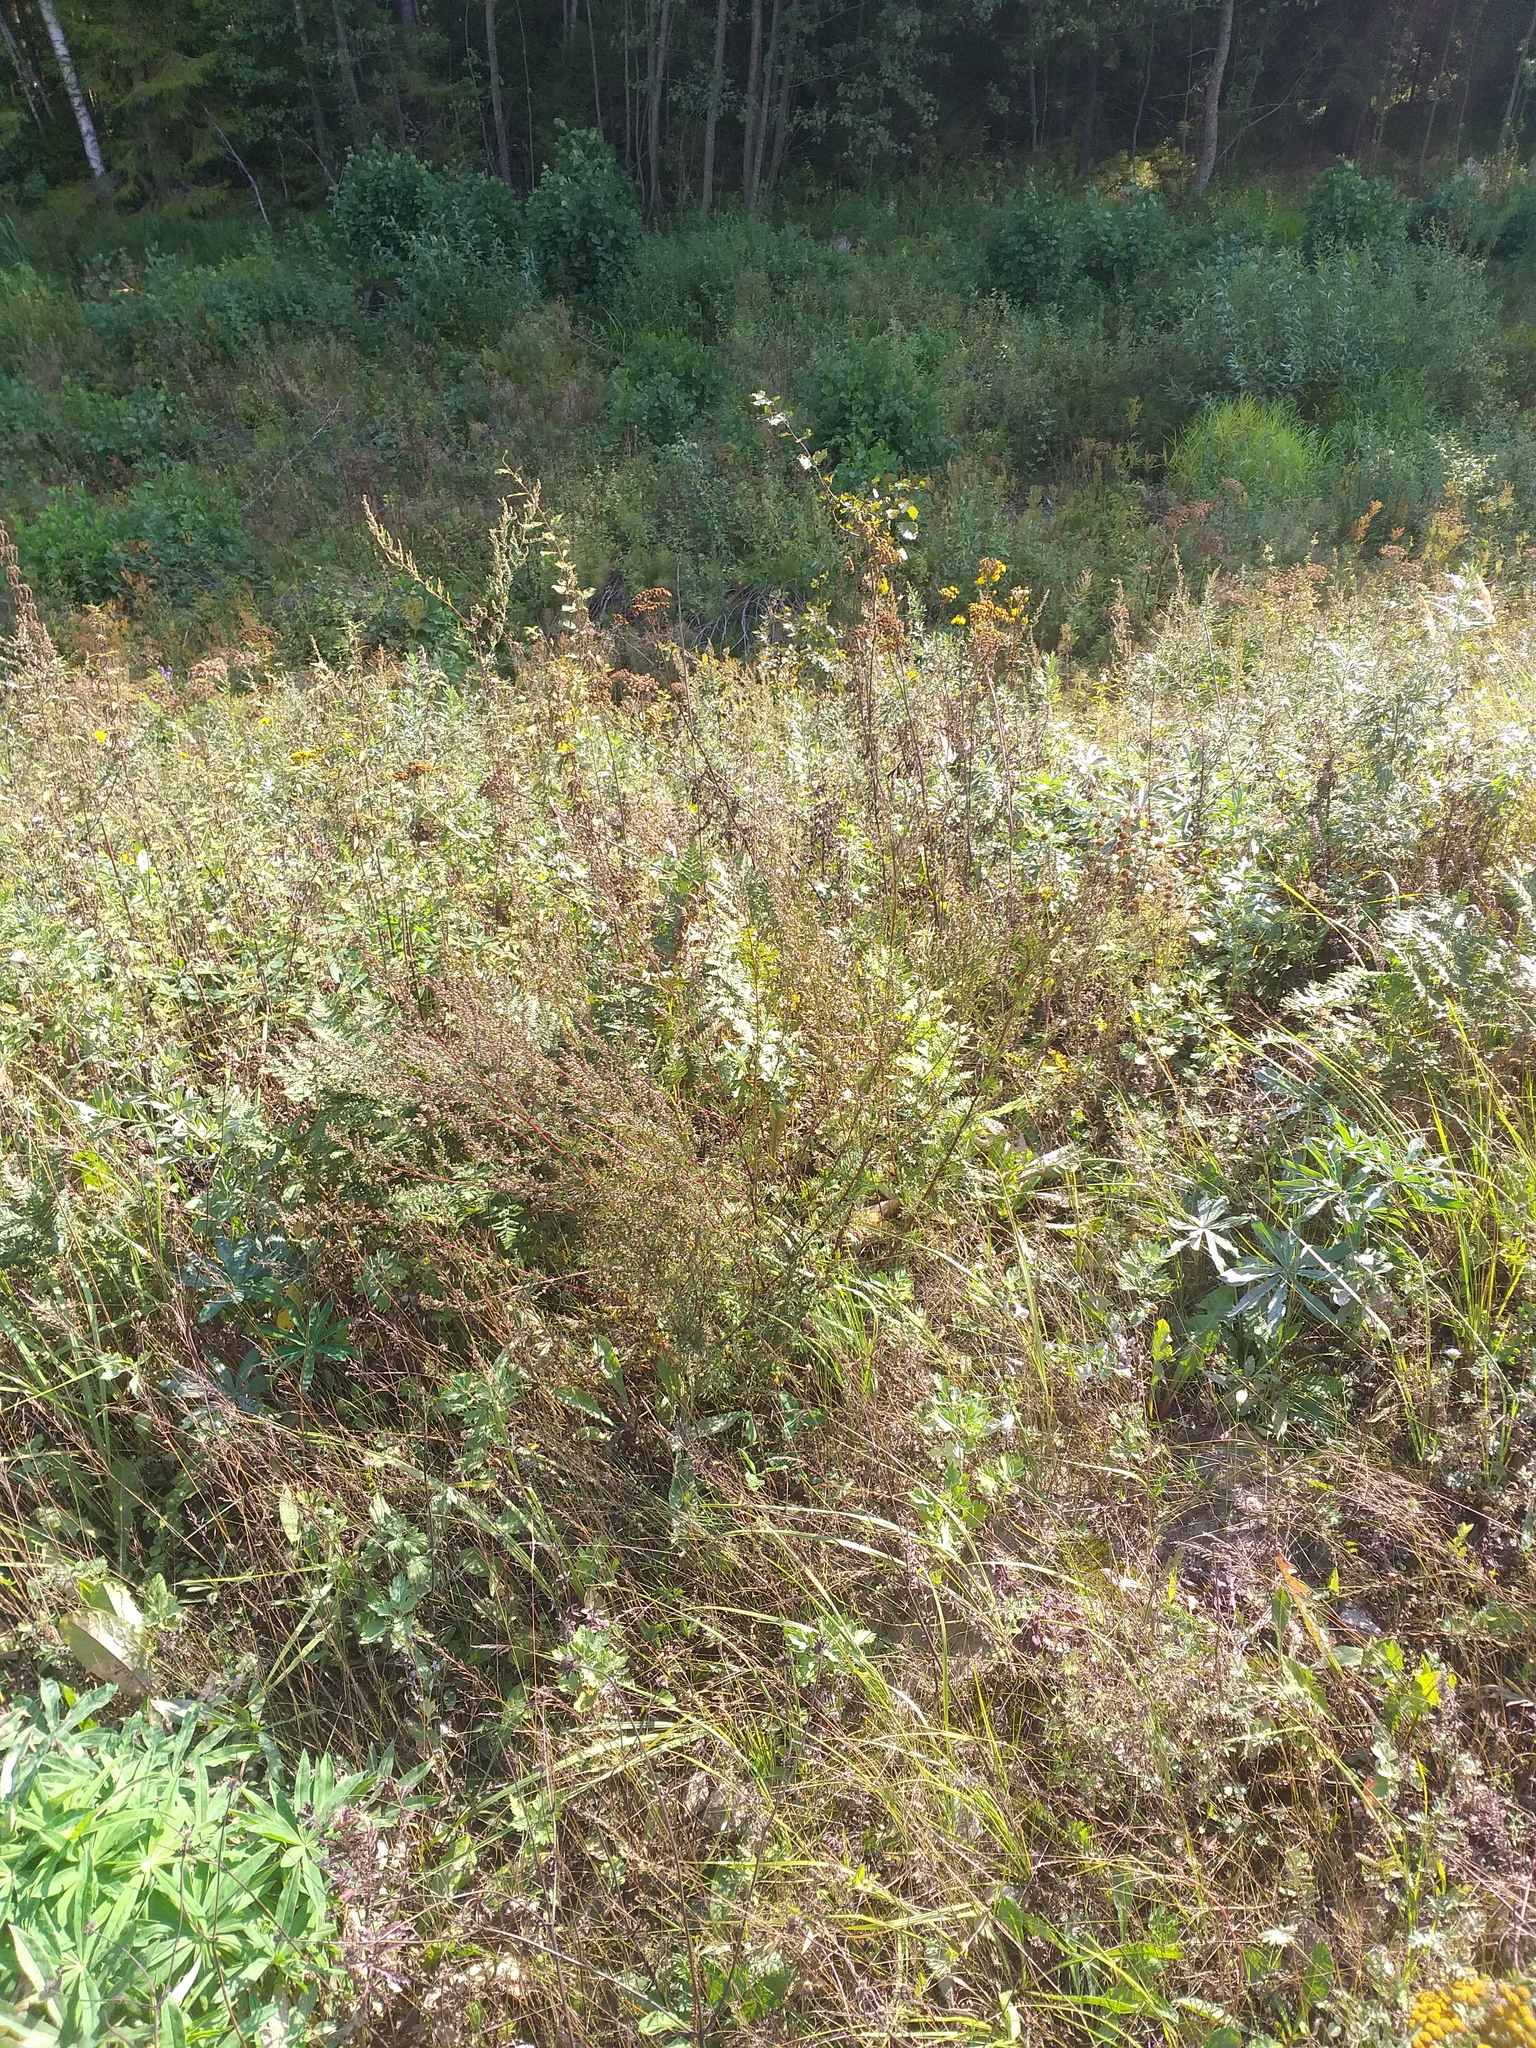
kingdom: Plantae
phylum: Tracheophyta
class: Magnoliopsida
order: Asterales
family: Asteraceae
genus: Artemisia
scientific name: Artemisia campestris
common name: Field wormwood
